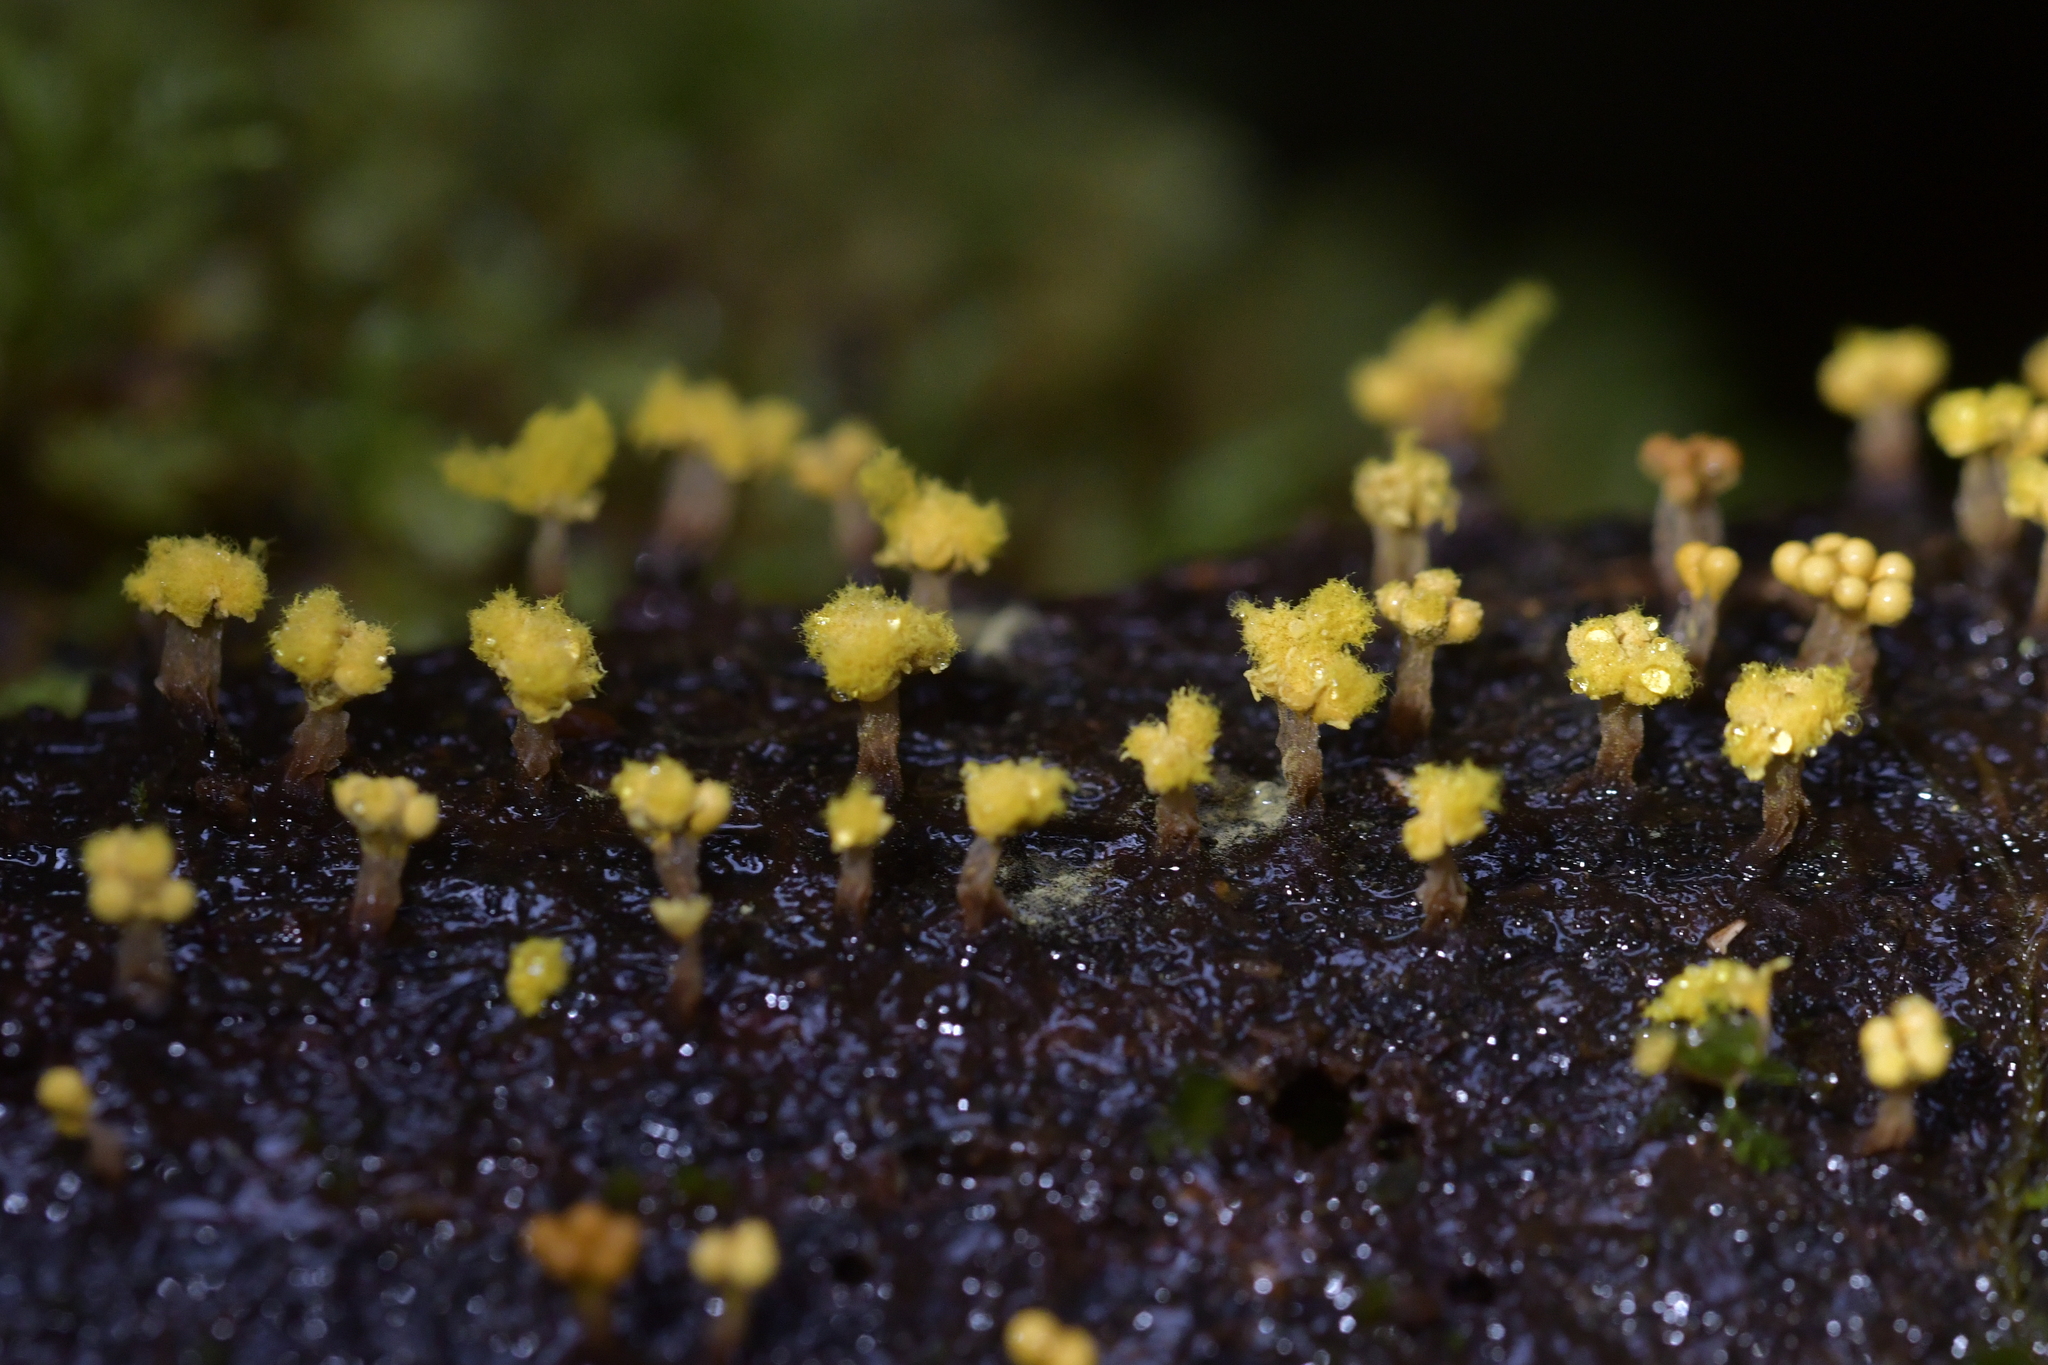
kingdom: Protozoa
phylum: Mycetozoa
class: Myxomycetes
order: Trichiales
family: Trichiaceae
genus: Oligonema
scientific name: Oligonema verrucosum
